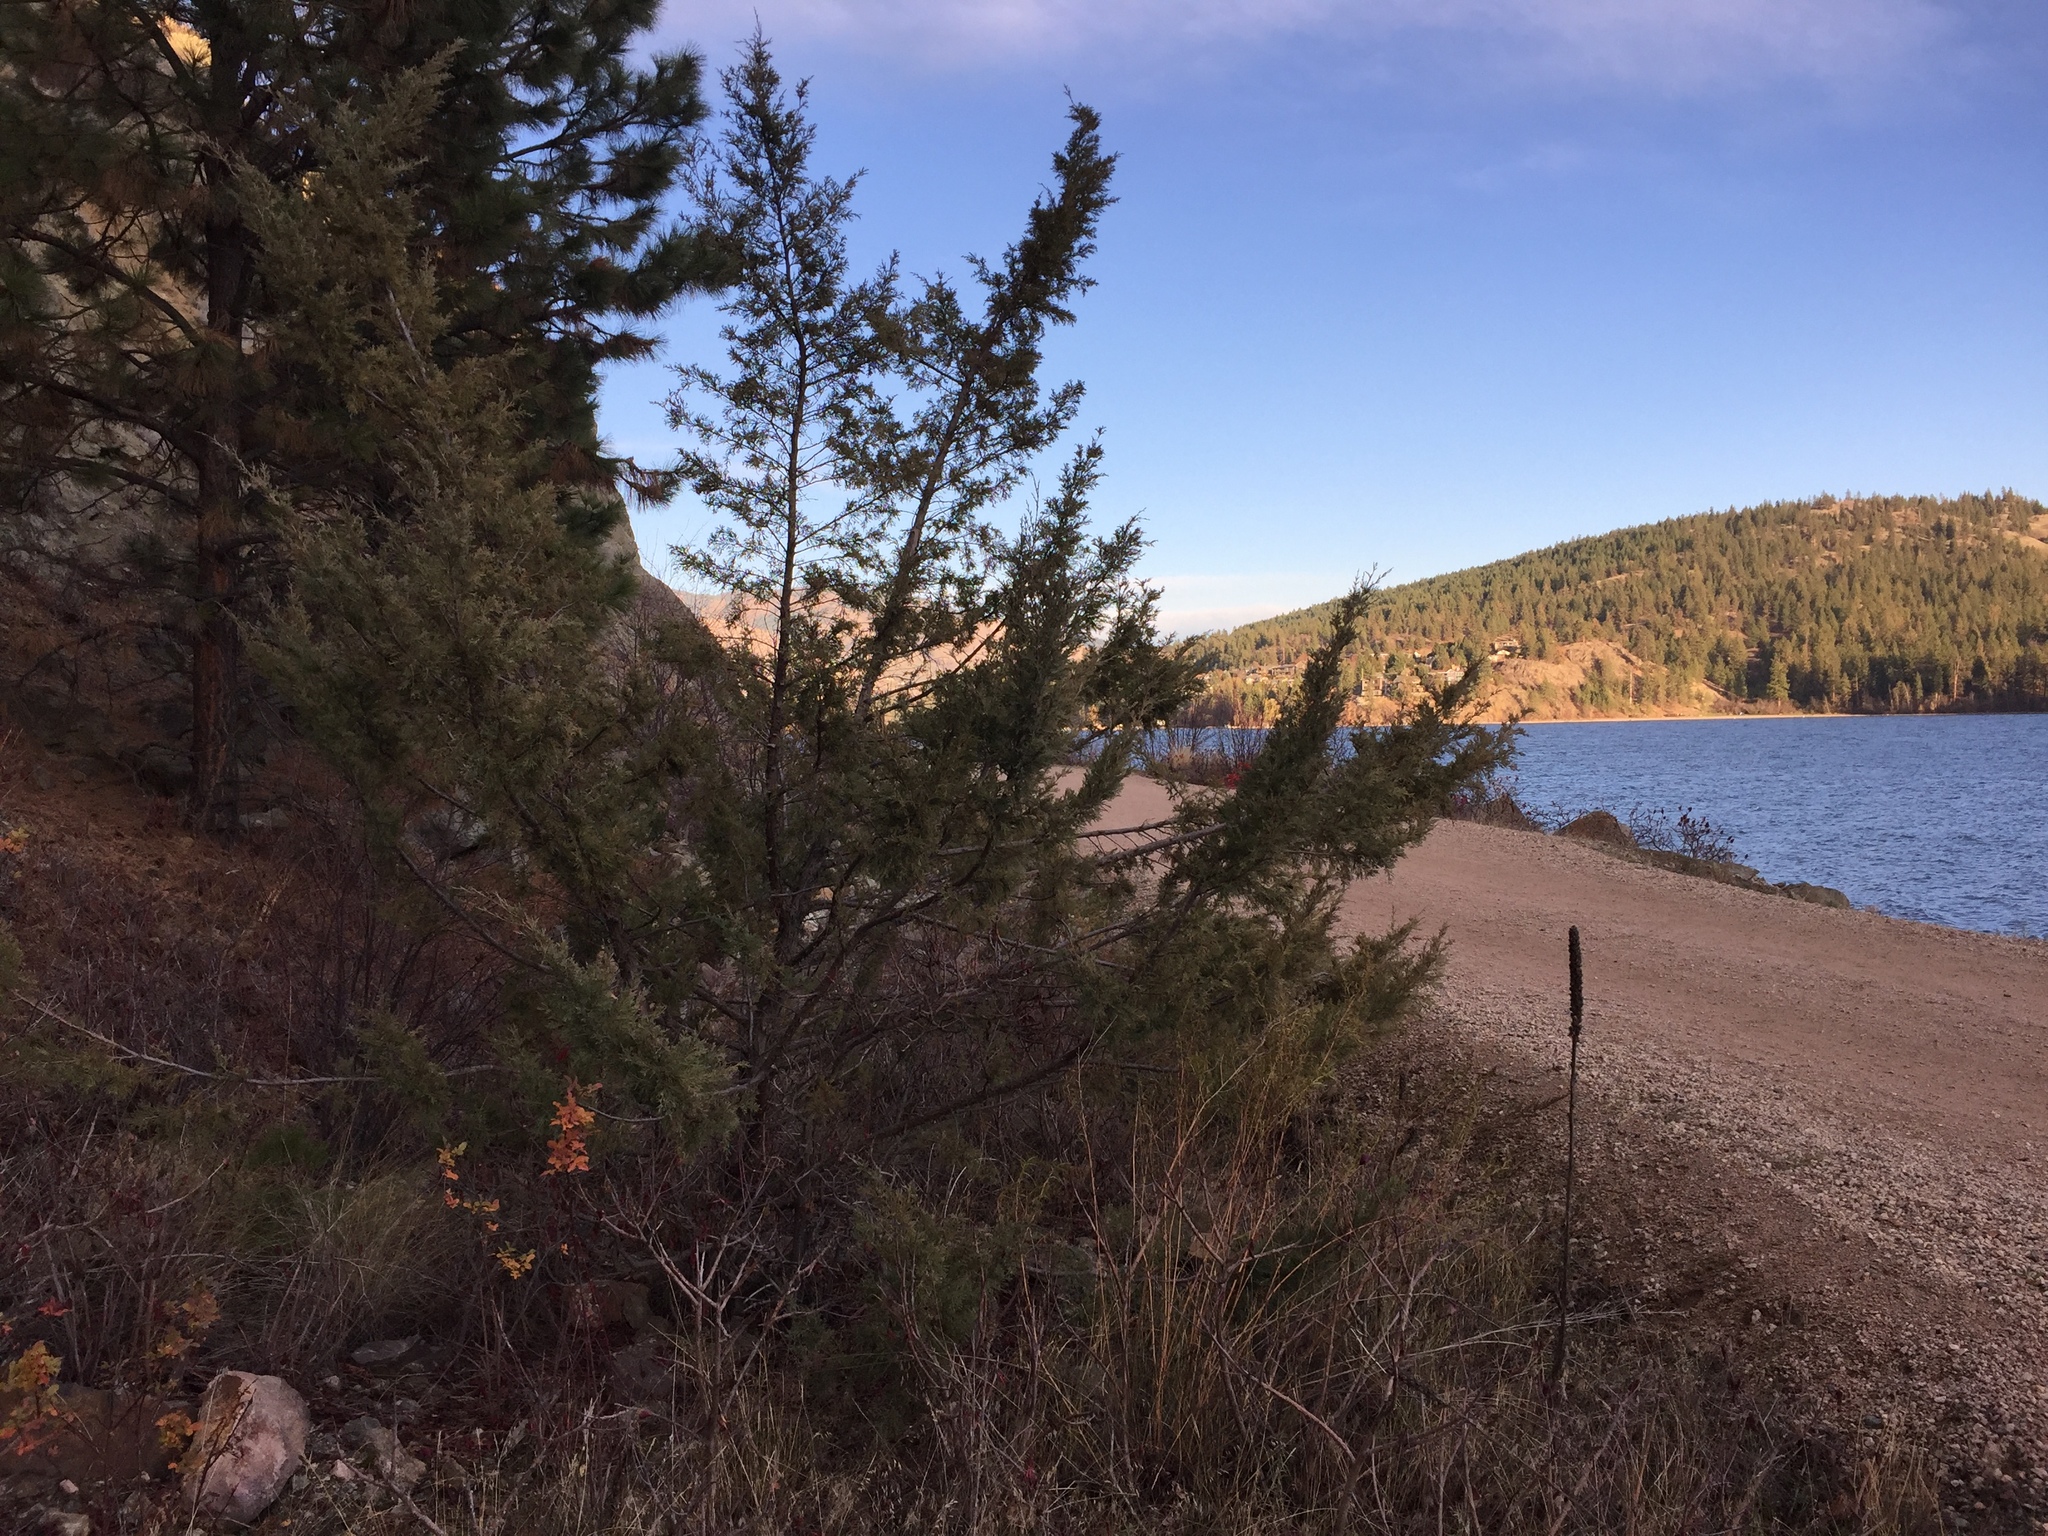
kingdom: Plantae
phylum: Tracheophyta
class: Pinopsida
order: Pinales
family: Cupressaceae
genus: Juniperus
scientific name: Juniperus scopulorum
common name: Rocky mountain juniper
